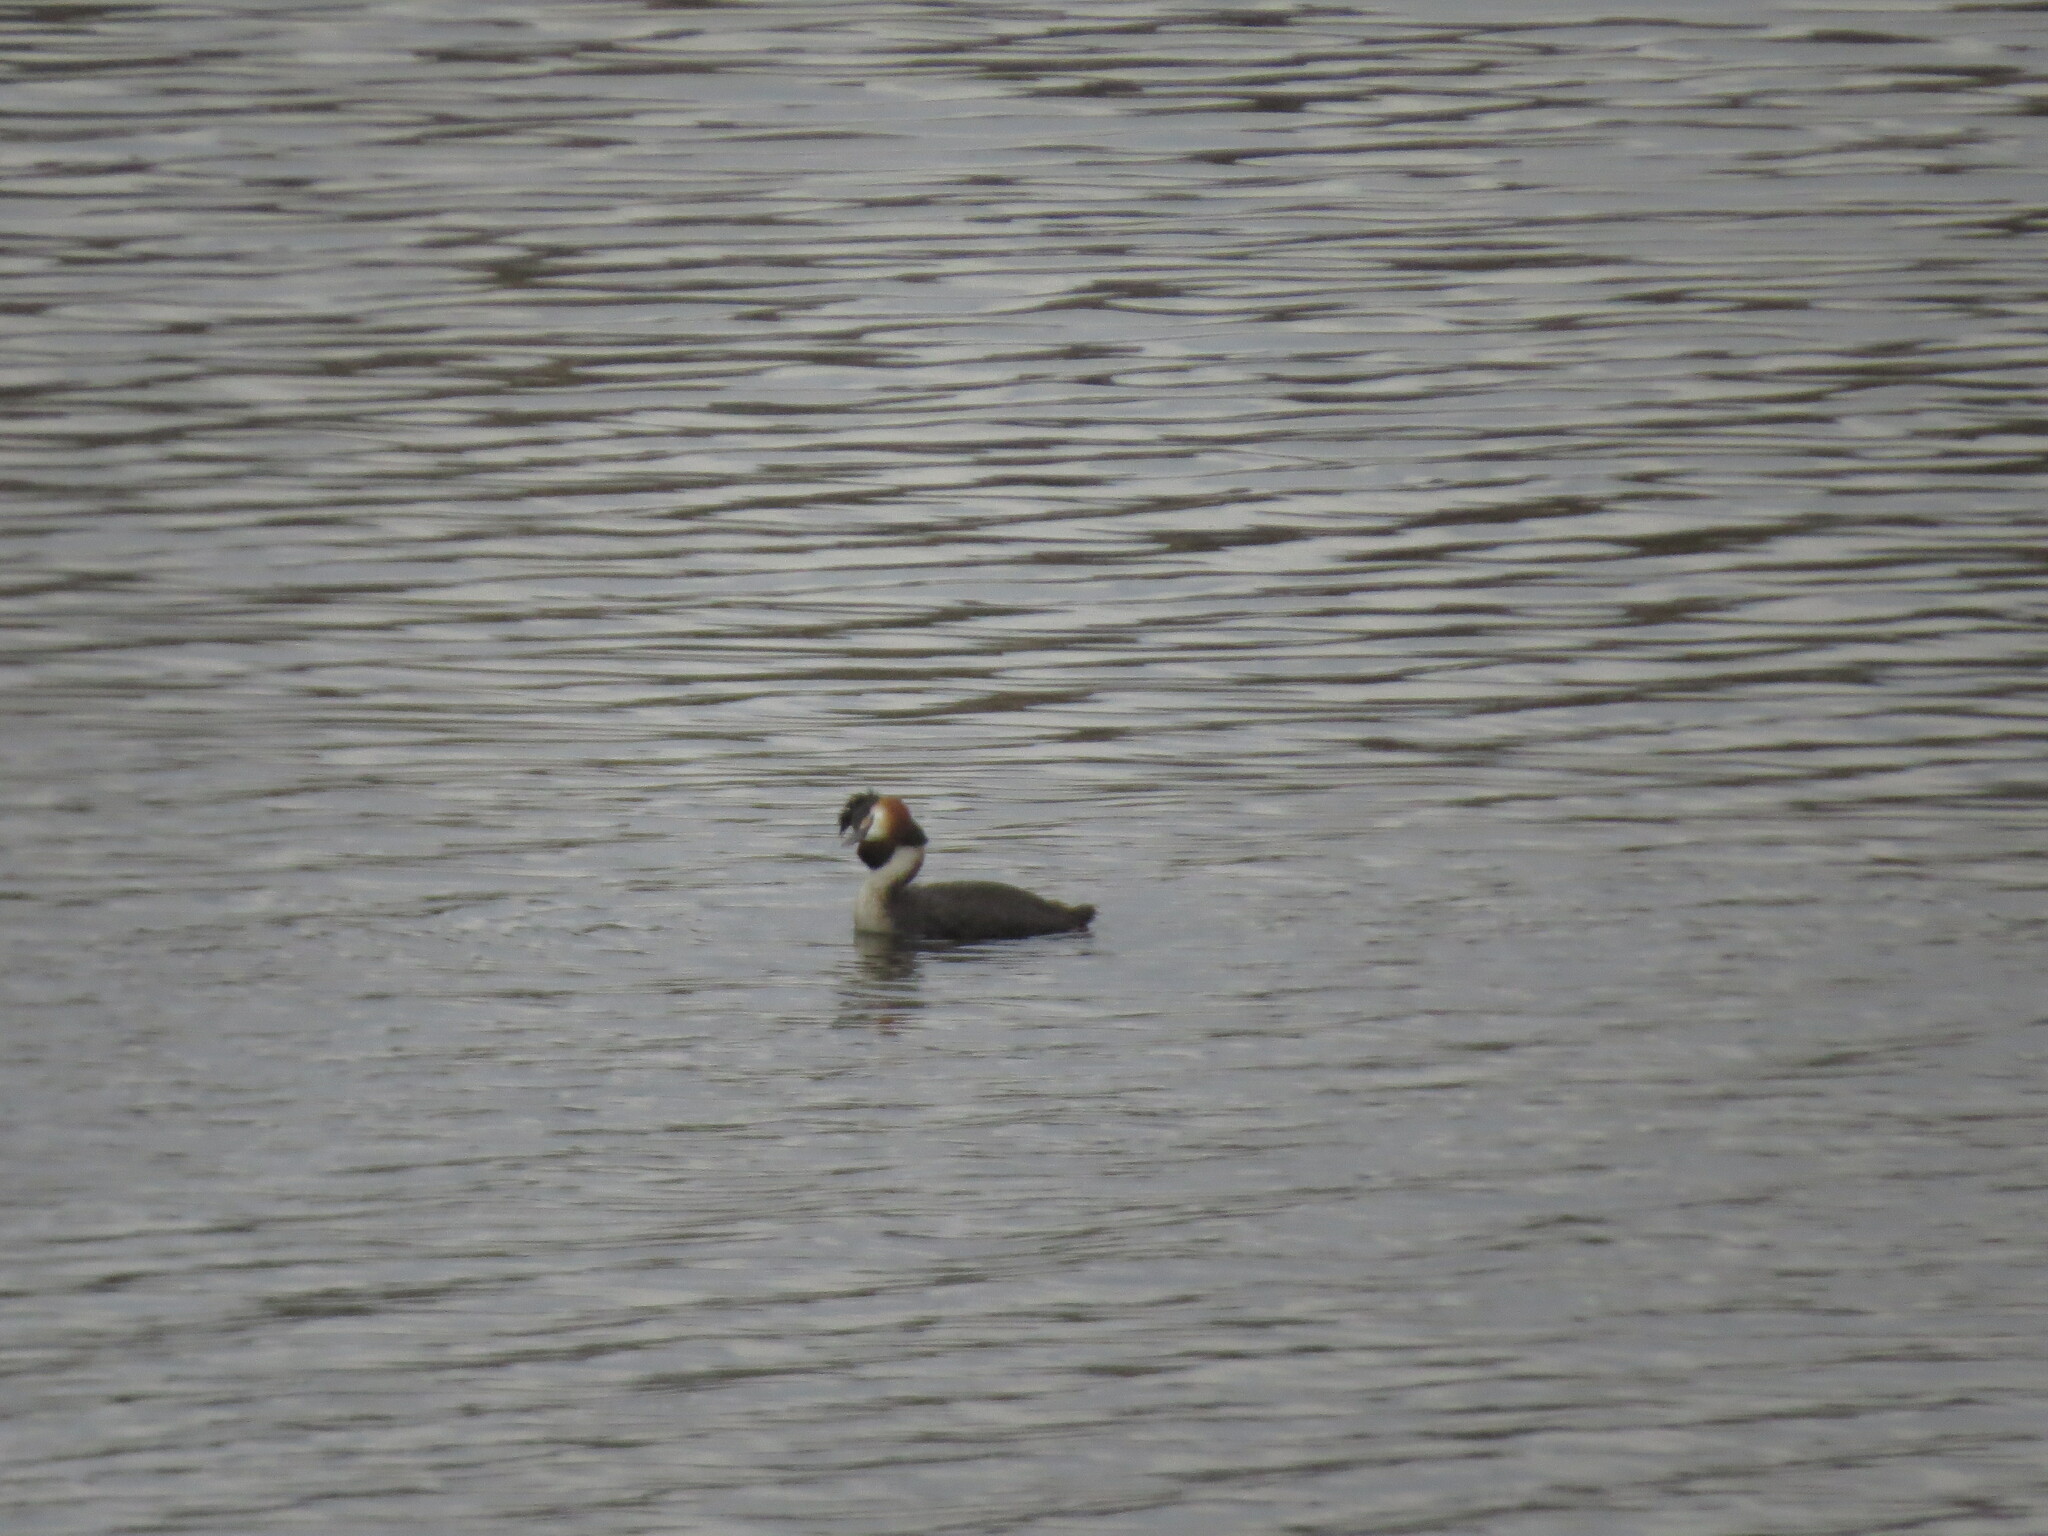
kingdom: Animalia
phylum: Chordata
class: Aves
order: Podicipediformes
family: Podicipedidae
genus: Podiceps
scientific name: Podiceps cristatus
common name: Great crested grebe
